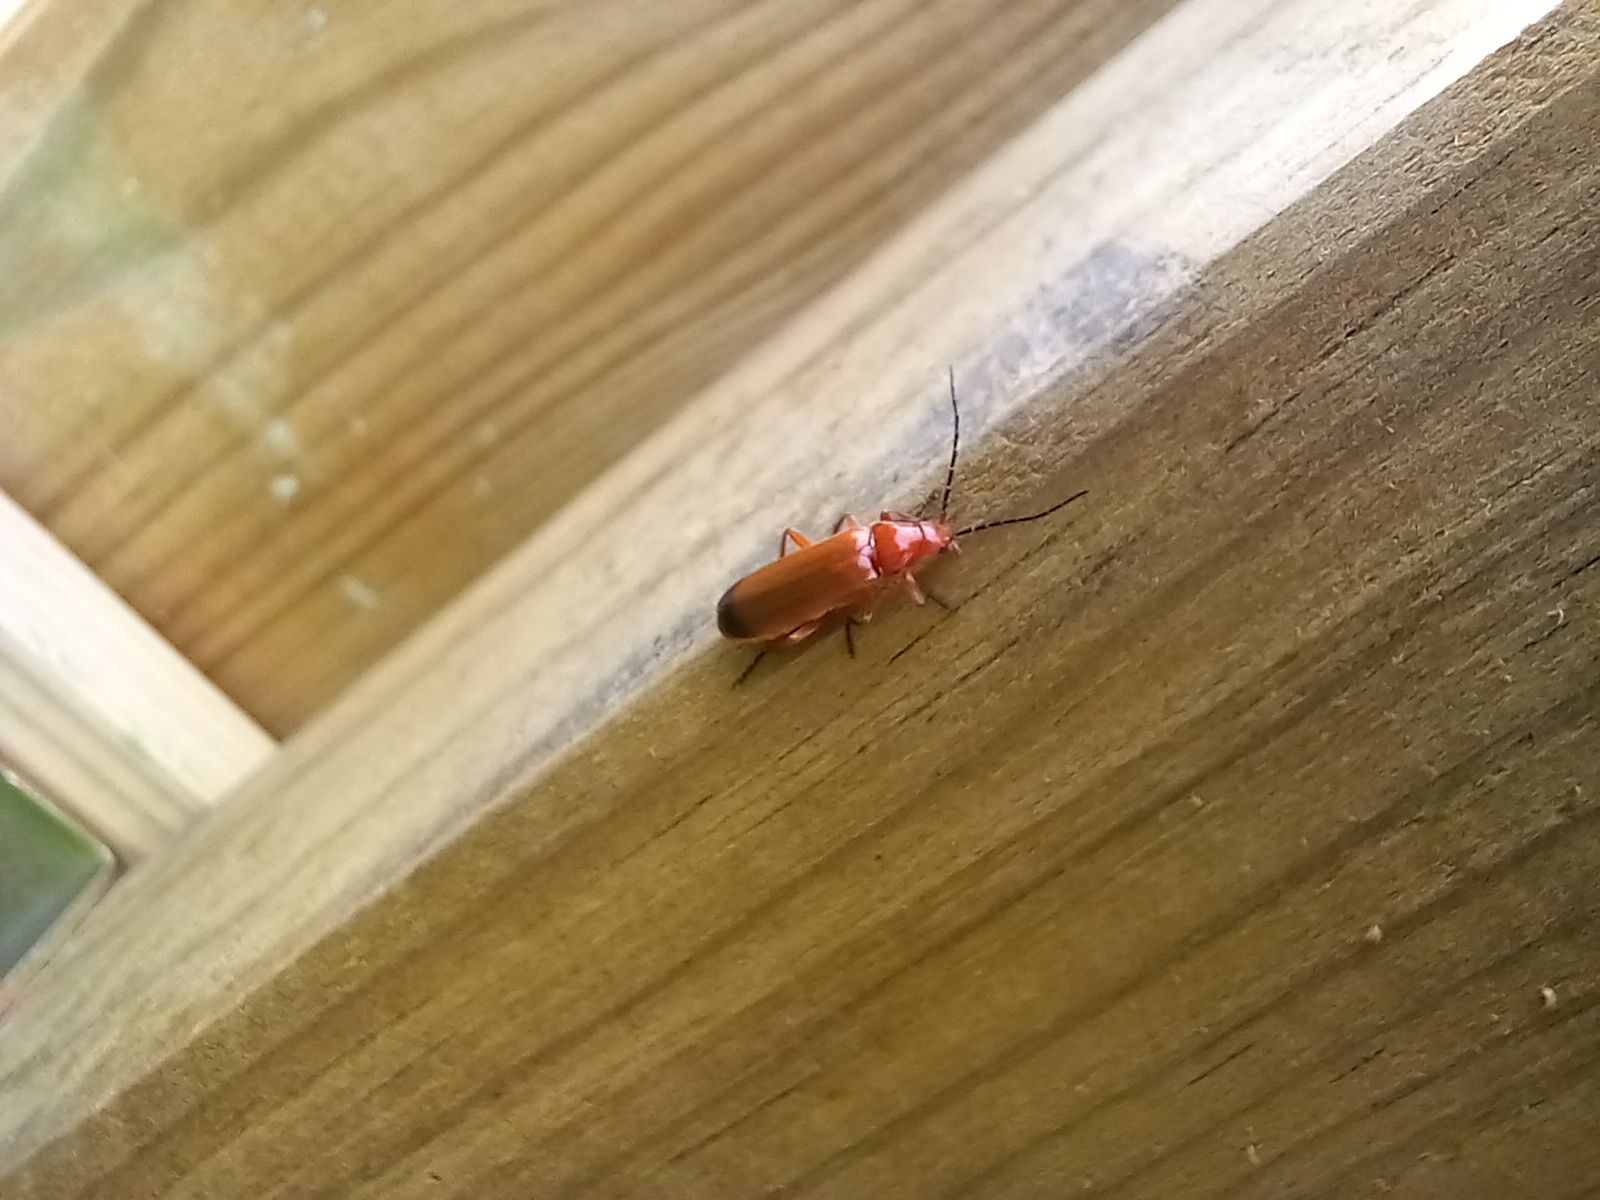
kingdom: Animalia
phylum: Arthropoda
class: Insecta
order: Coleoptera
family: Cantharidae
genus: Rhagonycha
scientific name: Rhagonycha fulva
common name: Common red soldier beetle
